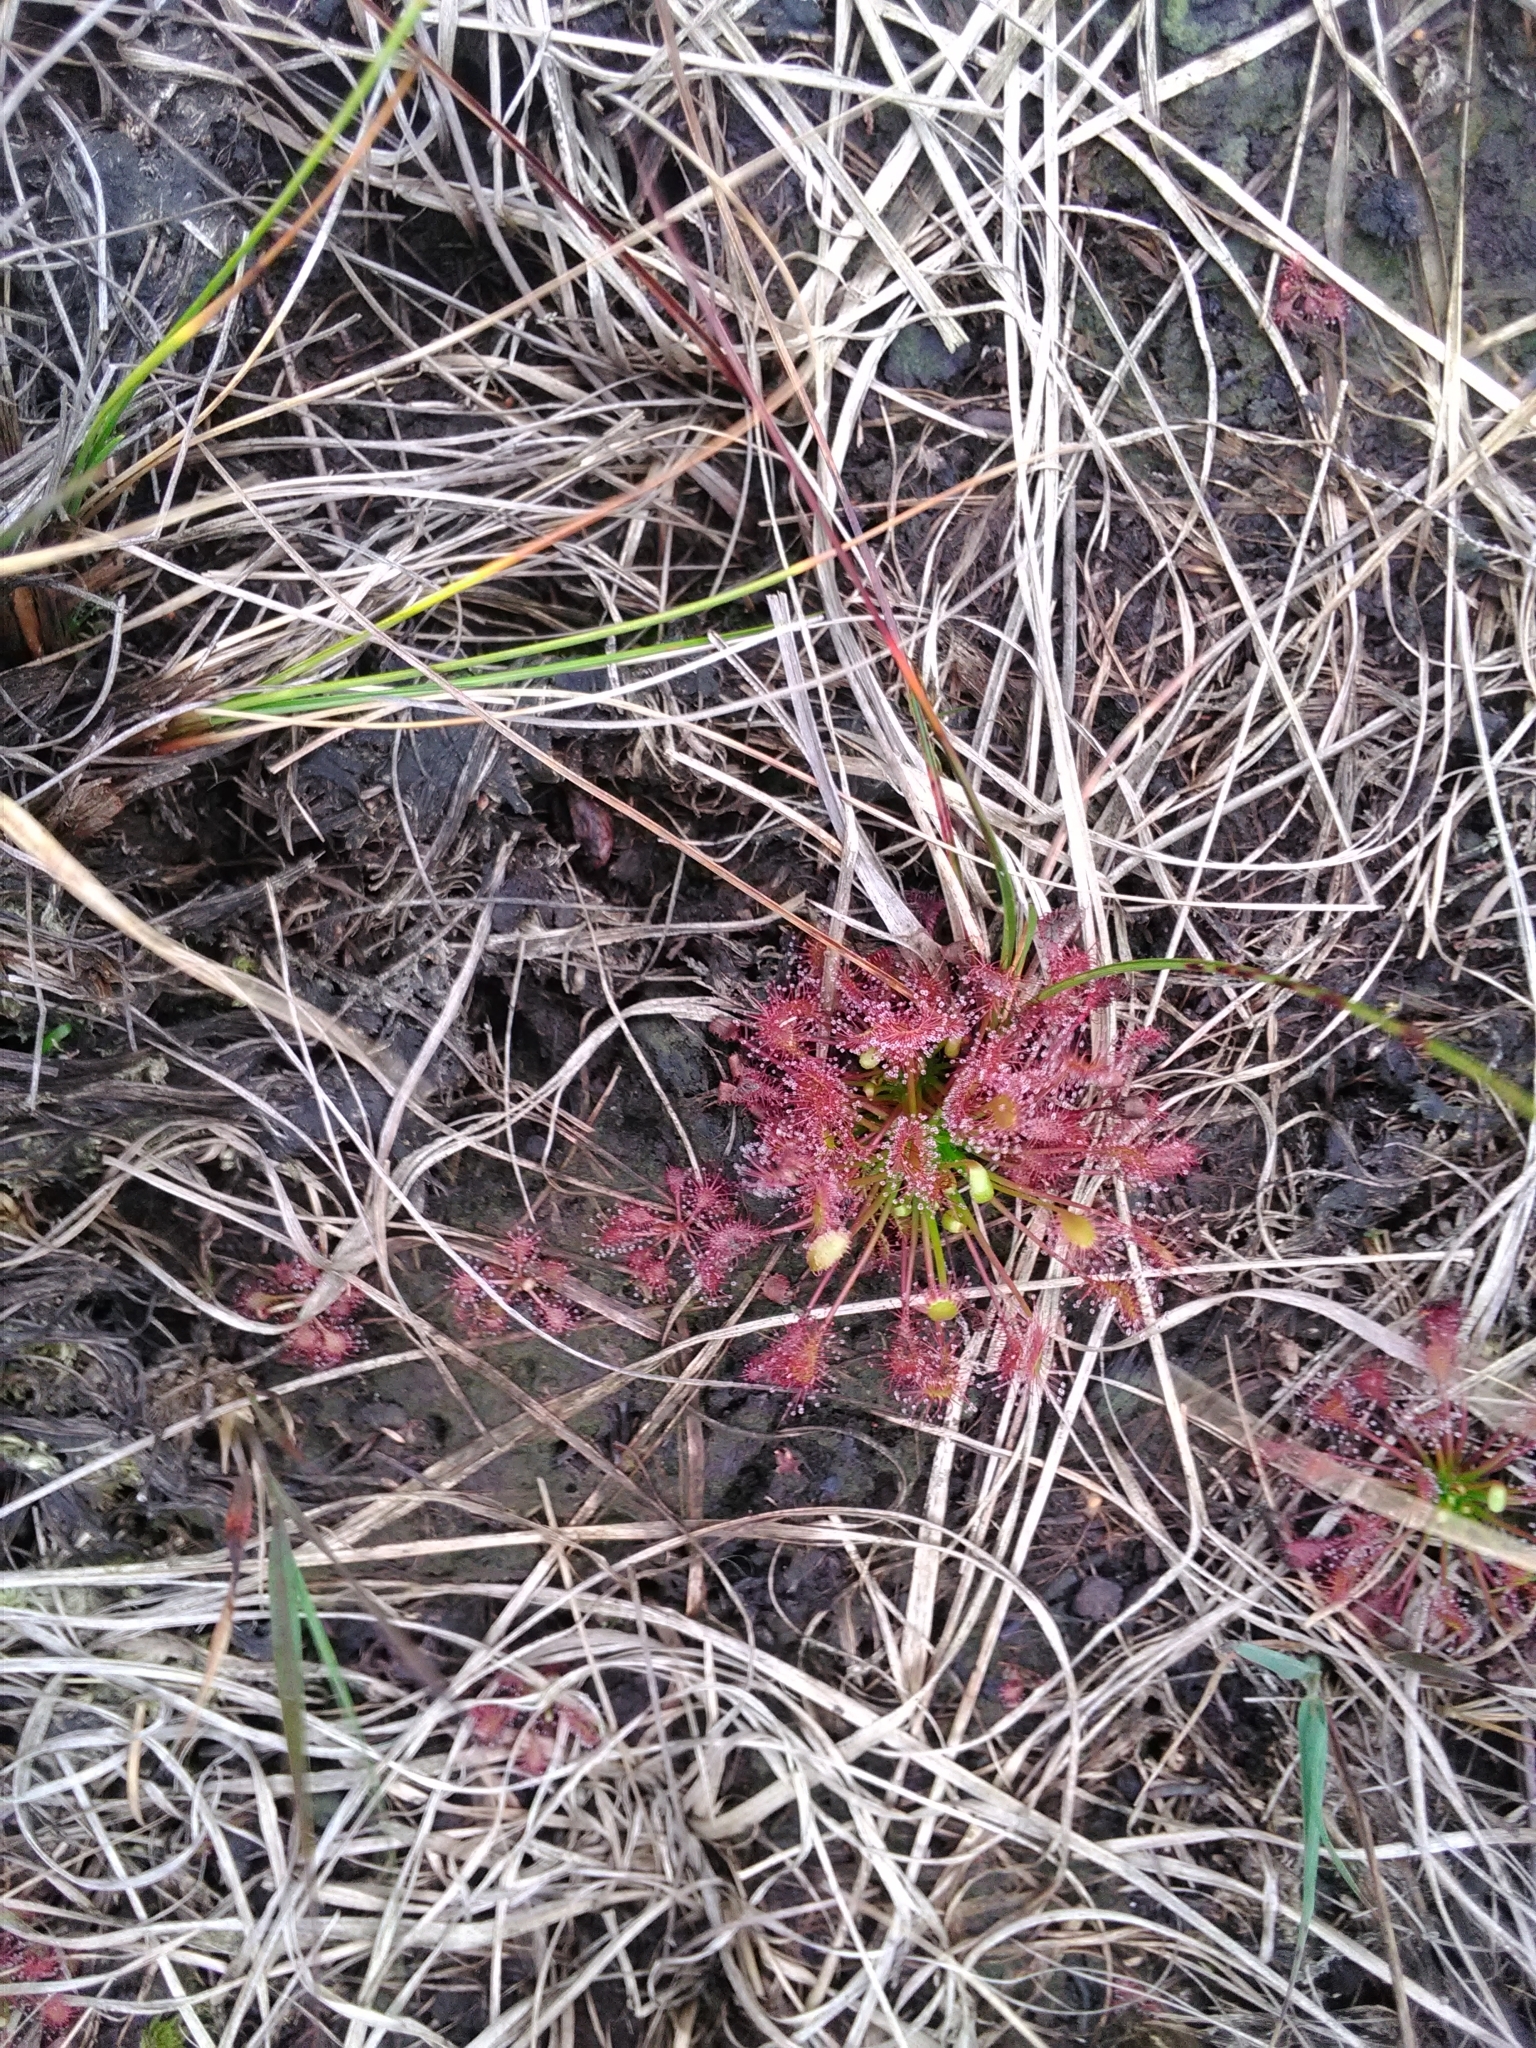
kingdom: Plantae
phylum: Tracheophyta
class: Magnoliopsida
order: Caryophyllales
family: Droseraceae
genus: Drosera
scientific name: Drosera intermedia
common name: Oblong-leaved sundew
